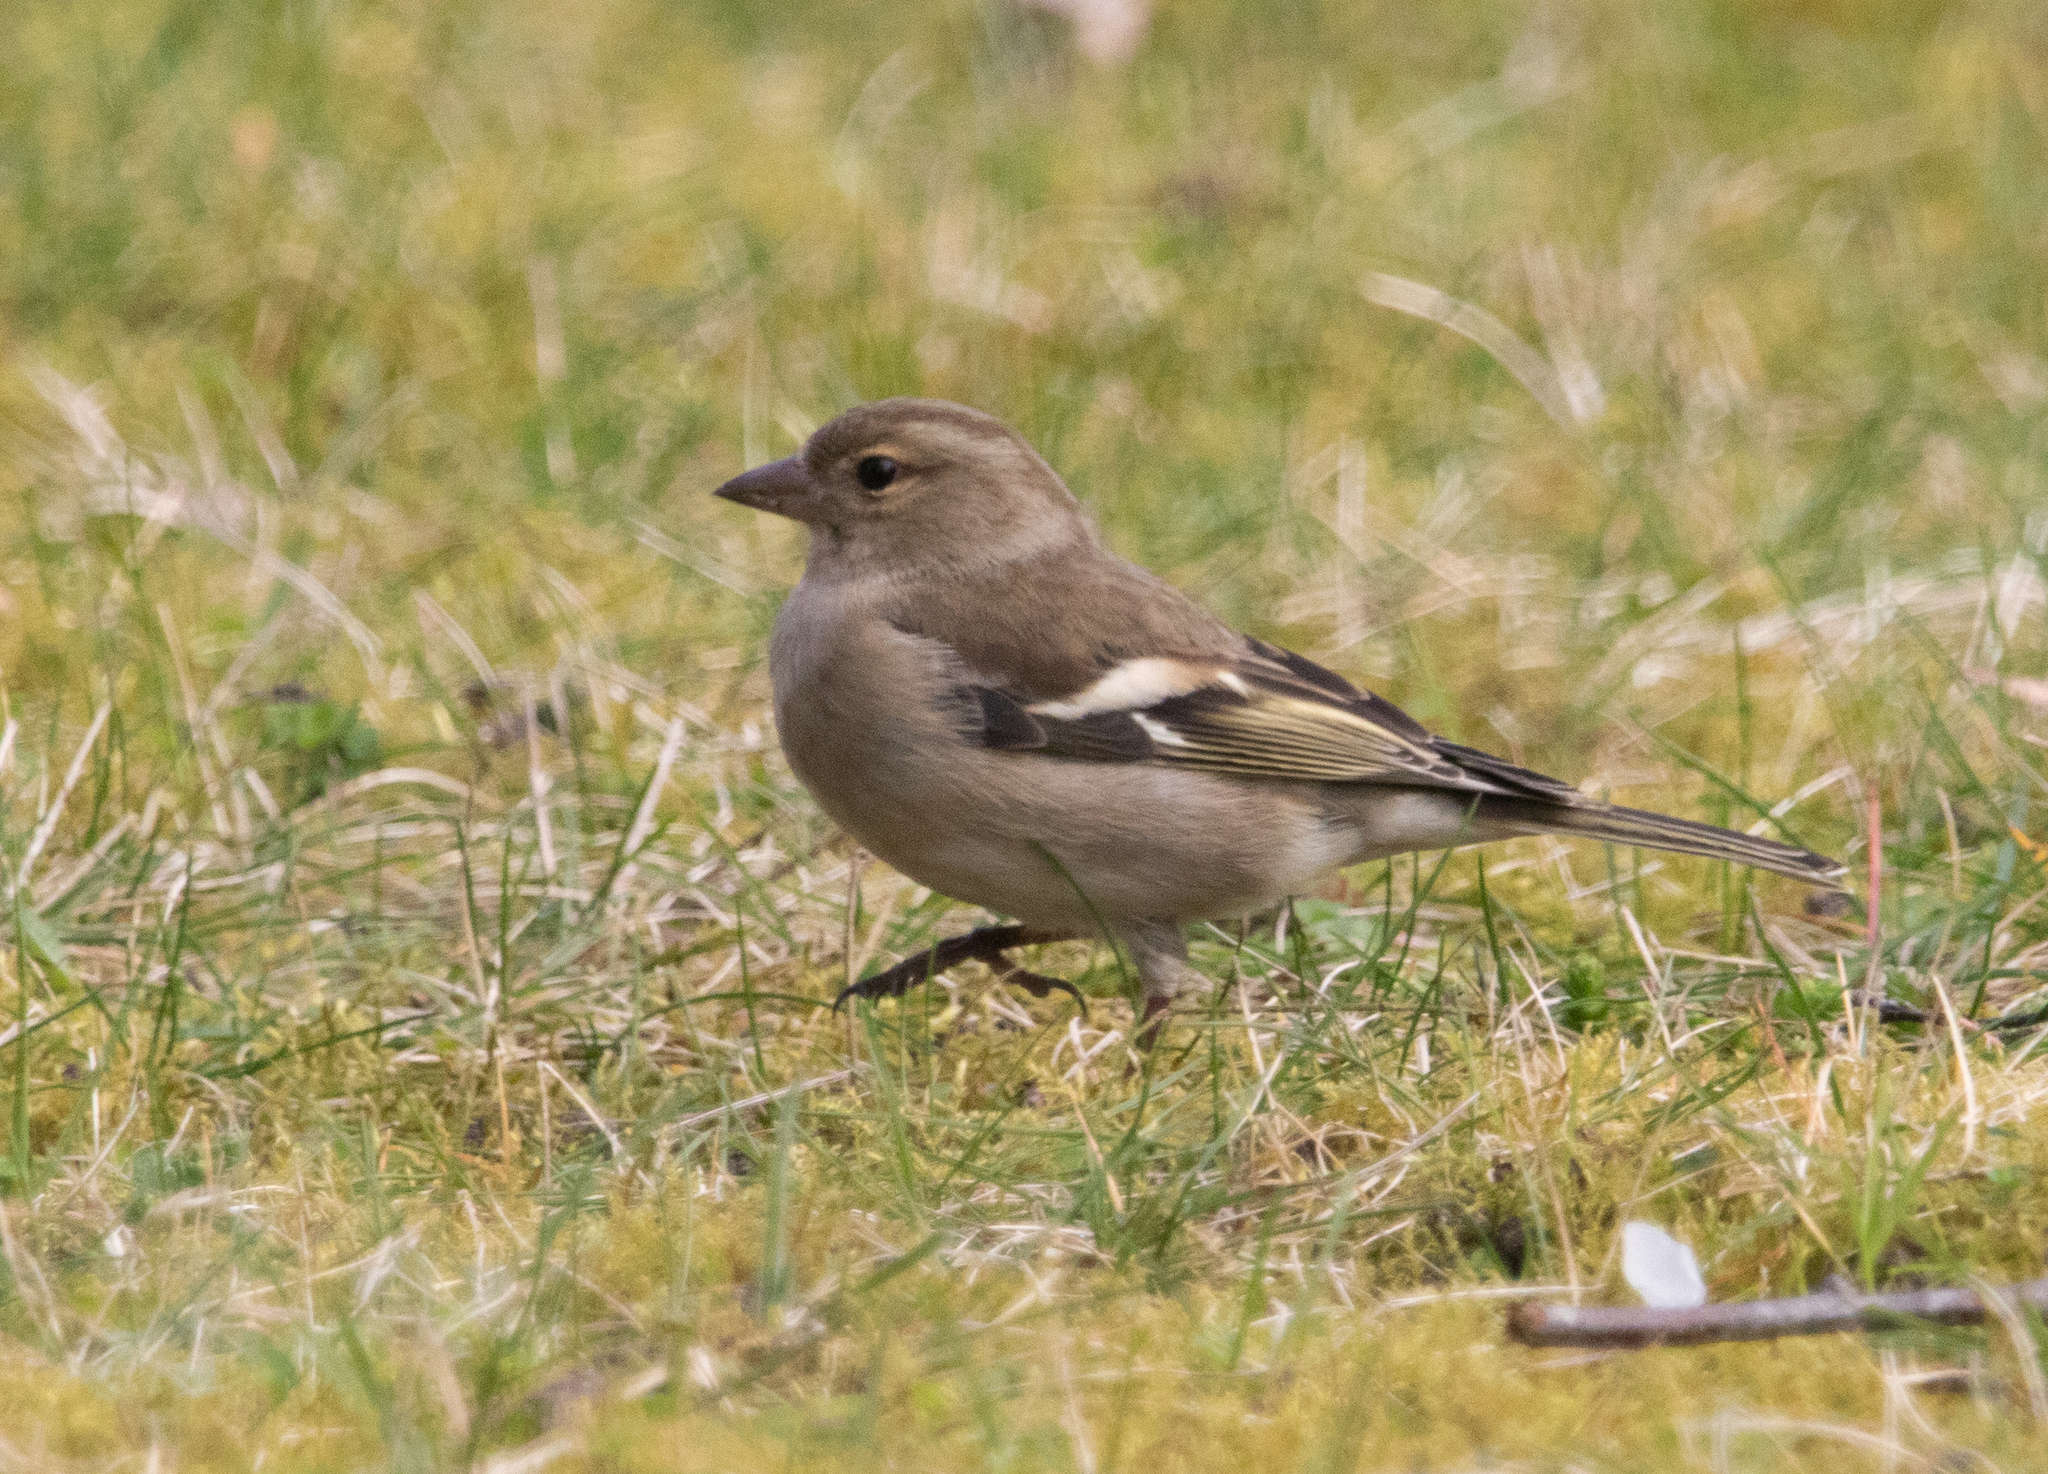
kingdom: Animalia
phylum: Chordata
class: Aves
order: Passeriformes
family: Fringillidae
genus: Fringilla
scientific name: Fringilla coelebs
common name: Common chaffinch
